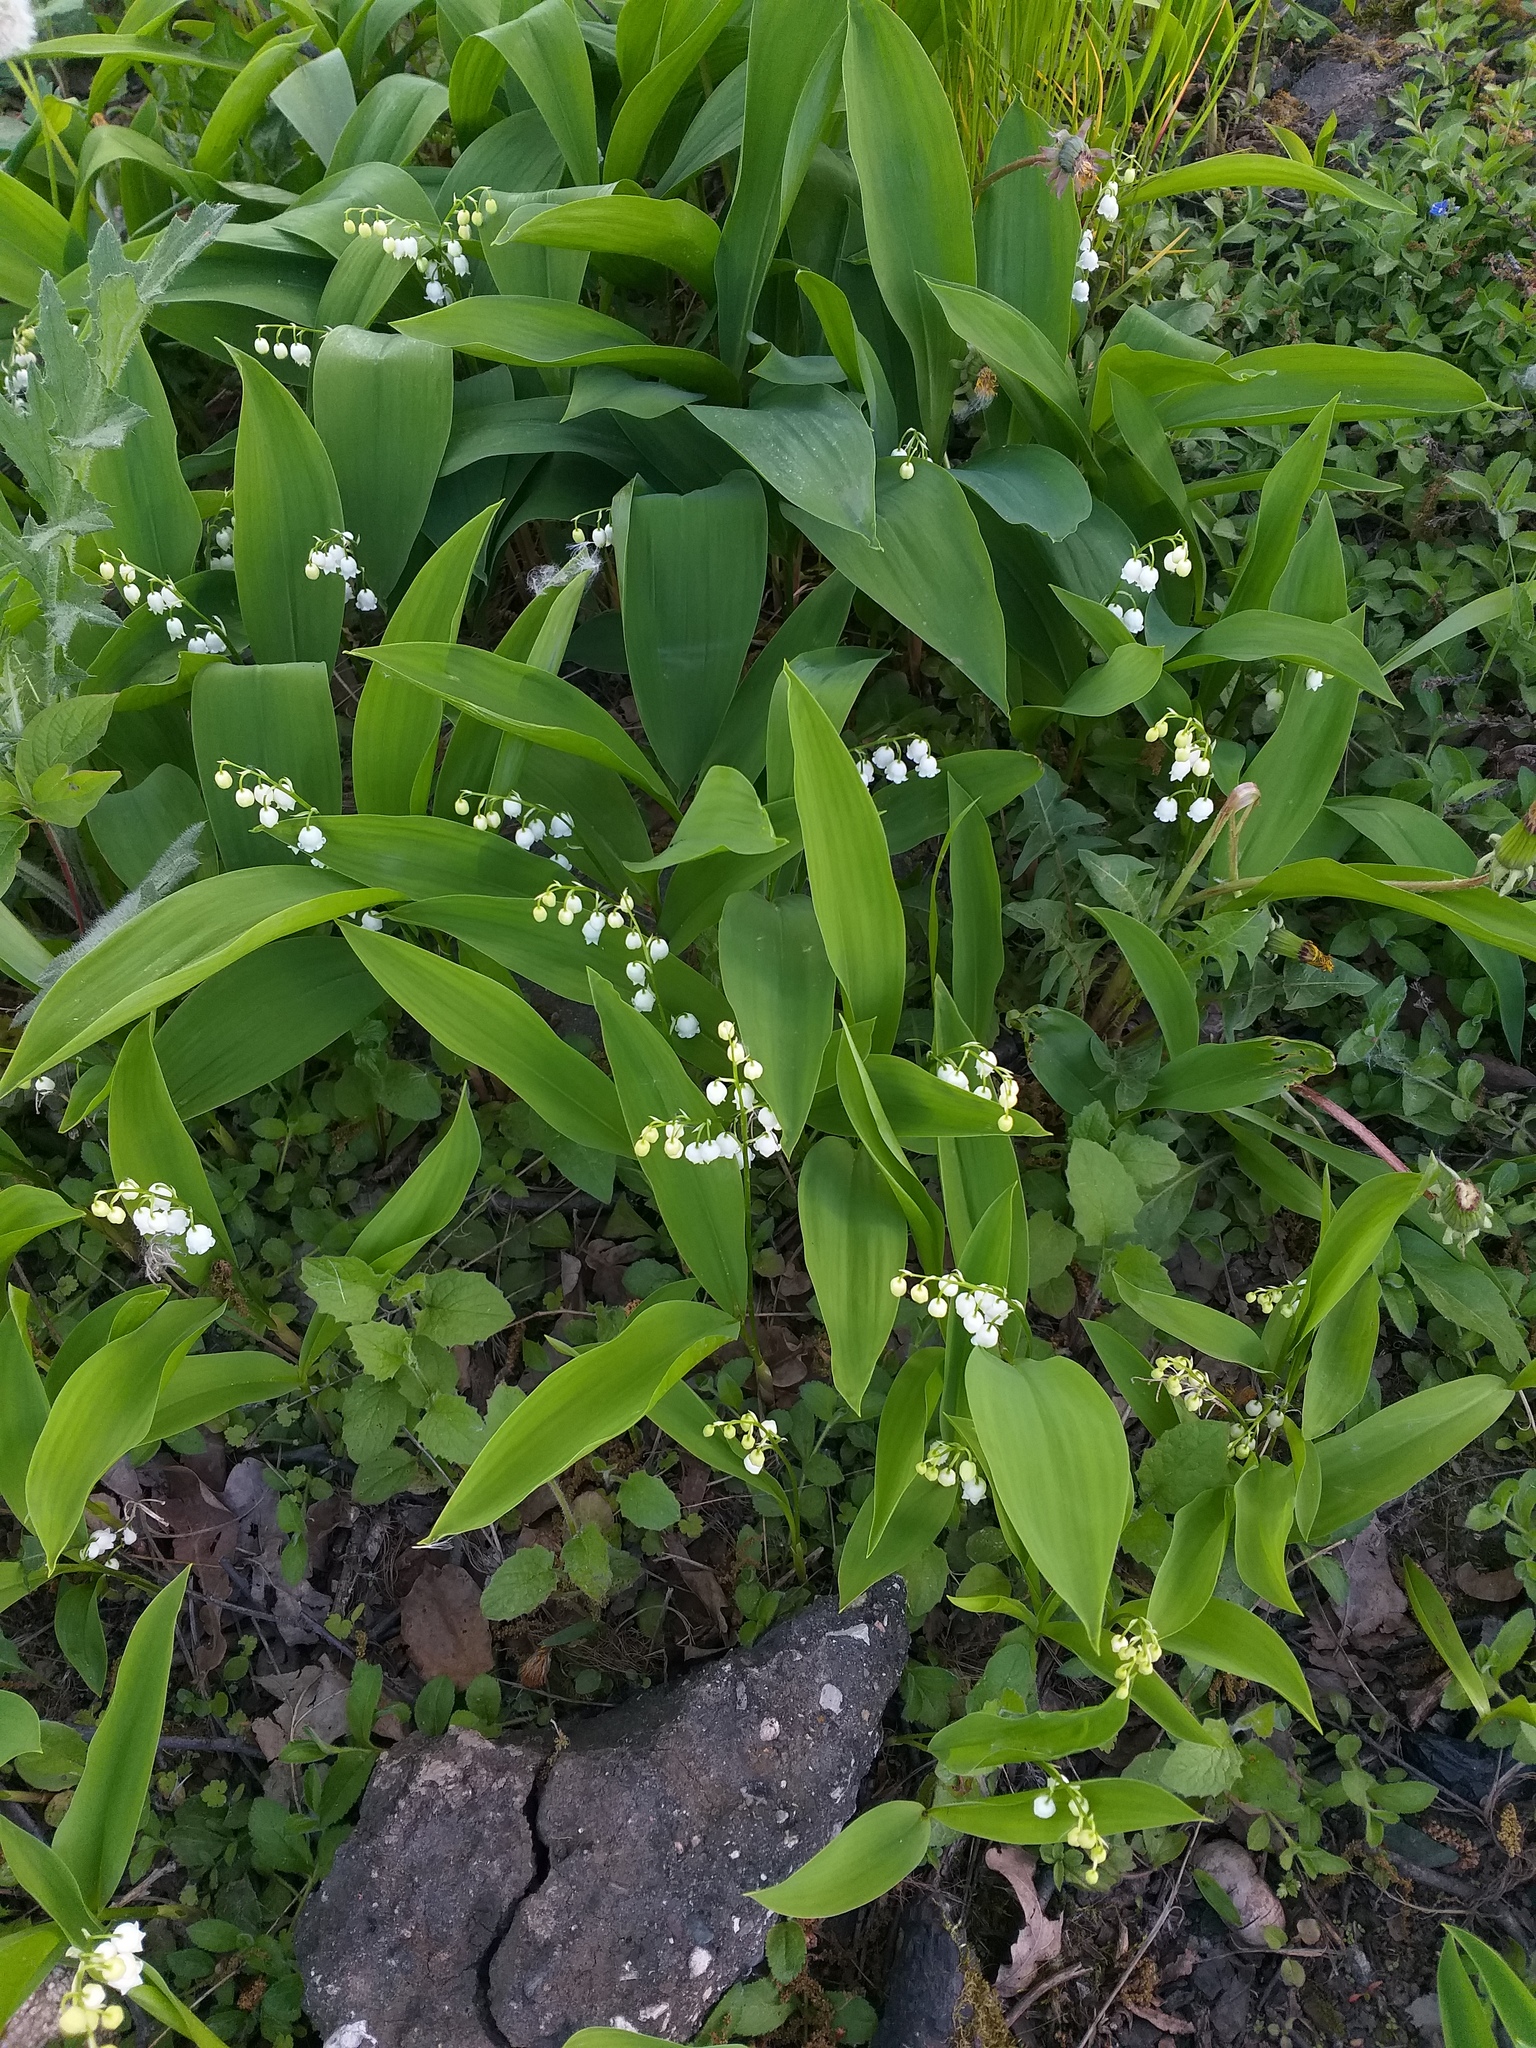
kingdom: Plantae
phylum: Tracheophyta
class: Liliopsida
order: Asparagales
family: Asparagaceae
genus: Convallaria
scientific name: Convallaria majalis
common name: Lily-of-the-valley
